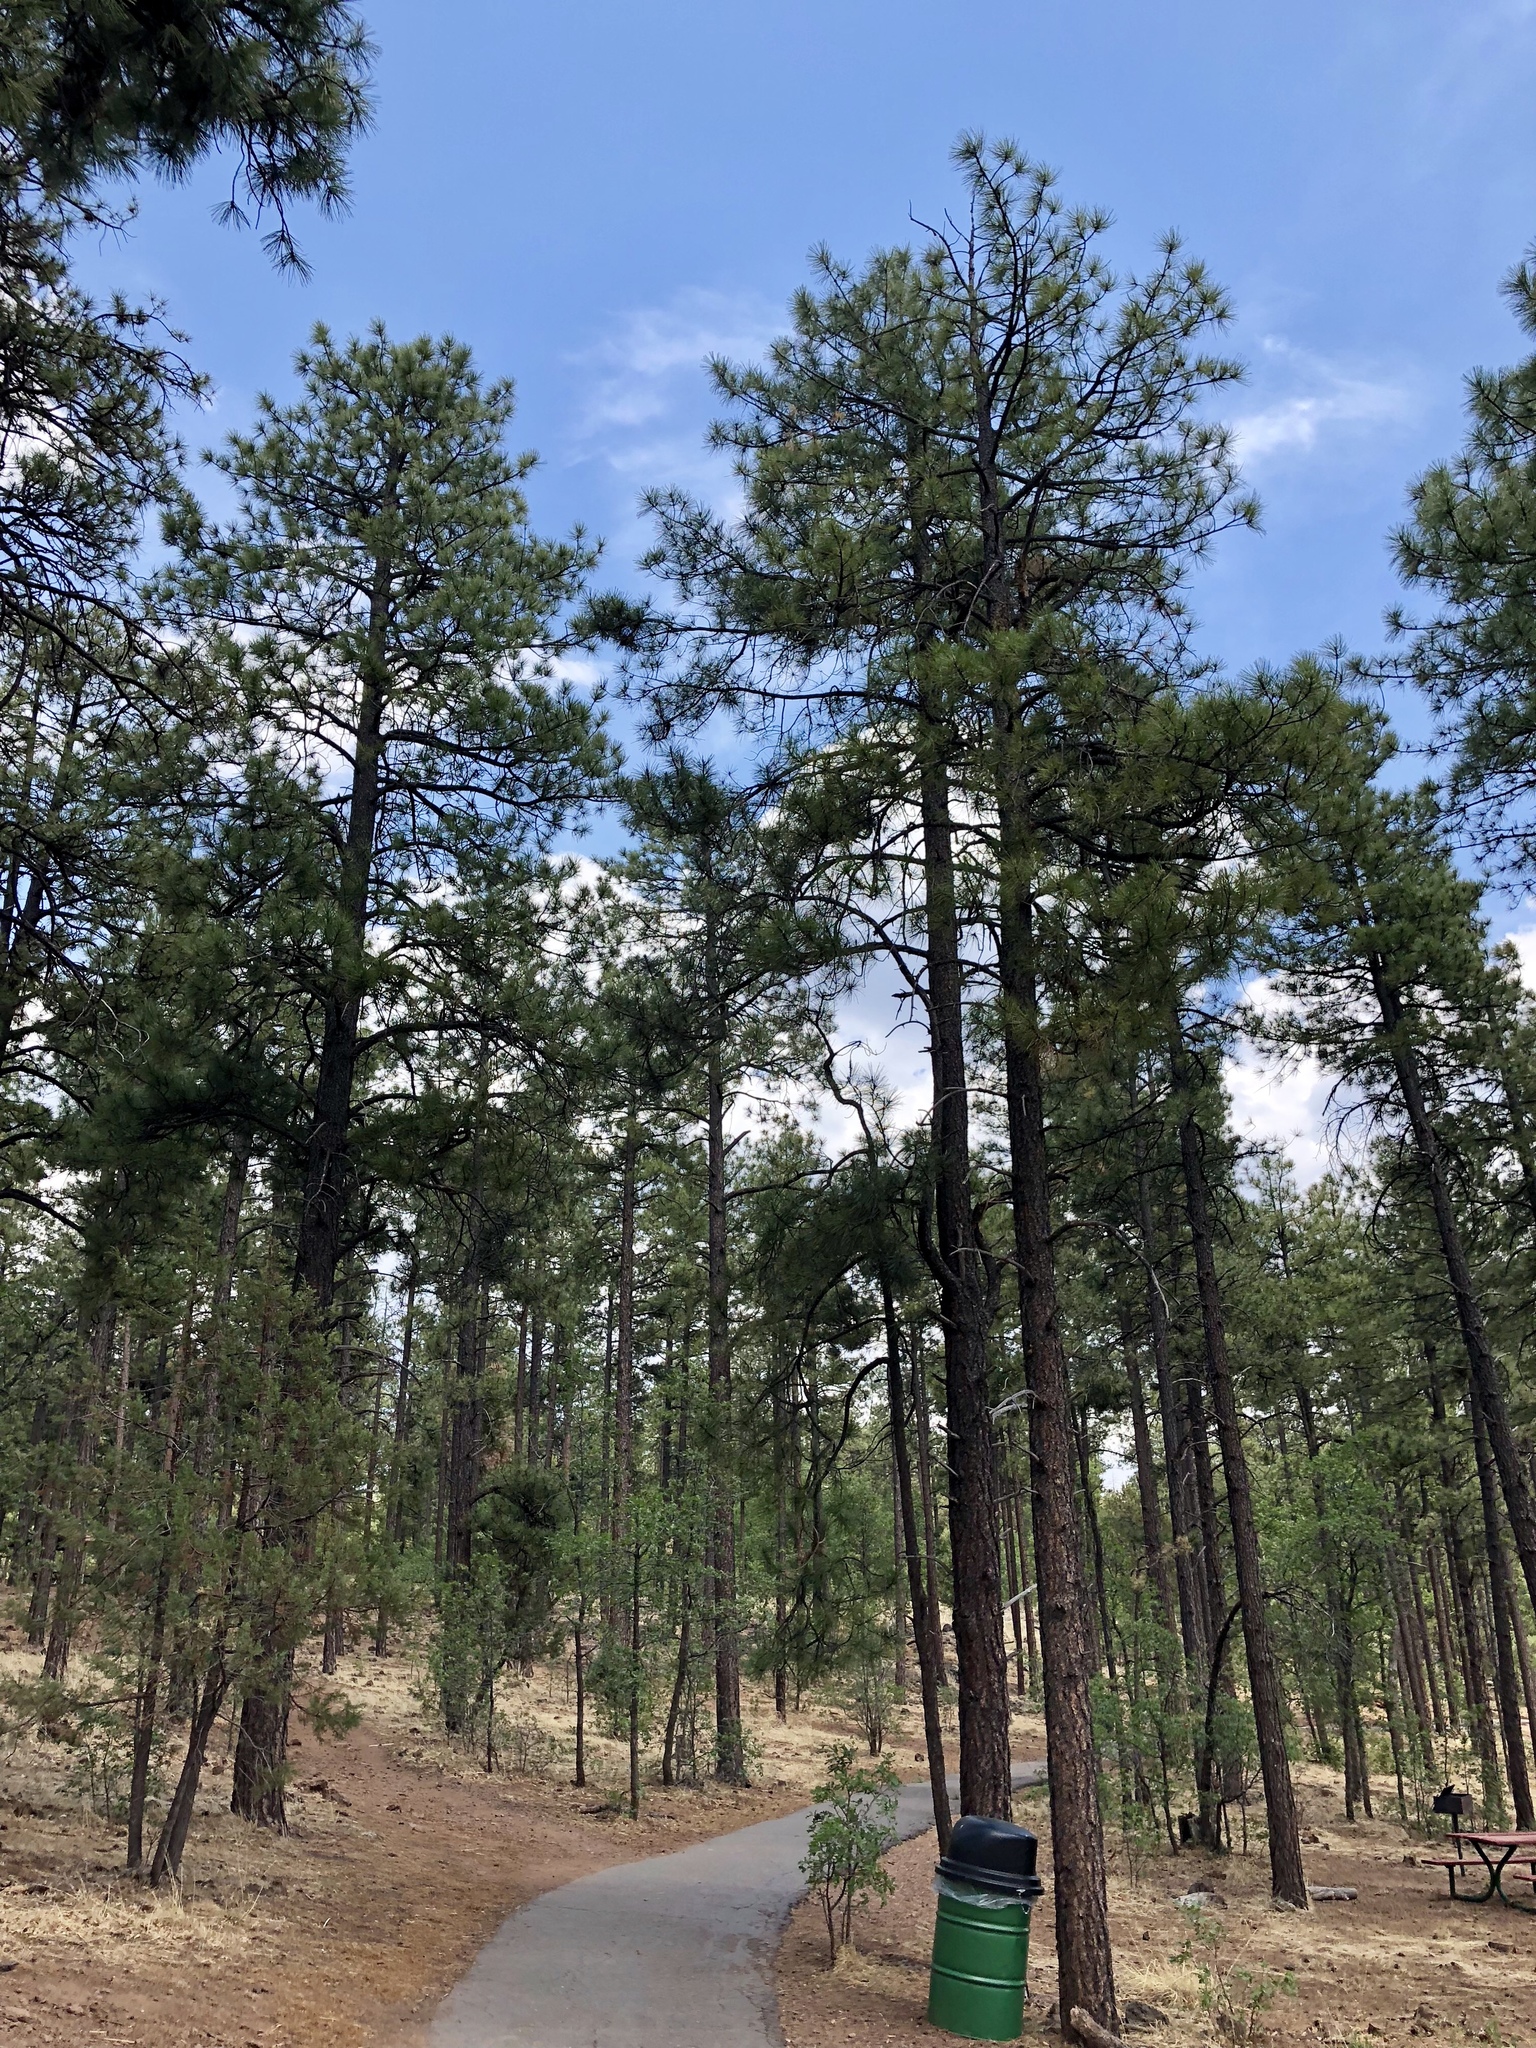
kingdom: Plantae
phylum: Tracheophyta
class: Pinopsida
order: Pinales
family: Pinaceae
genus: Pinus
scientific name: Pinus ponderosa
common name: Western yellow-pine
